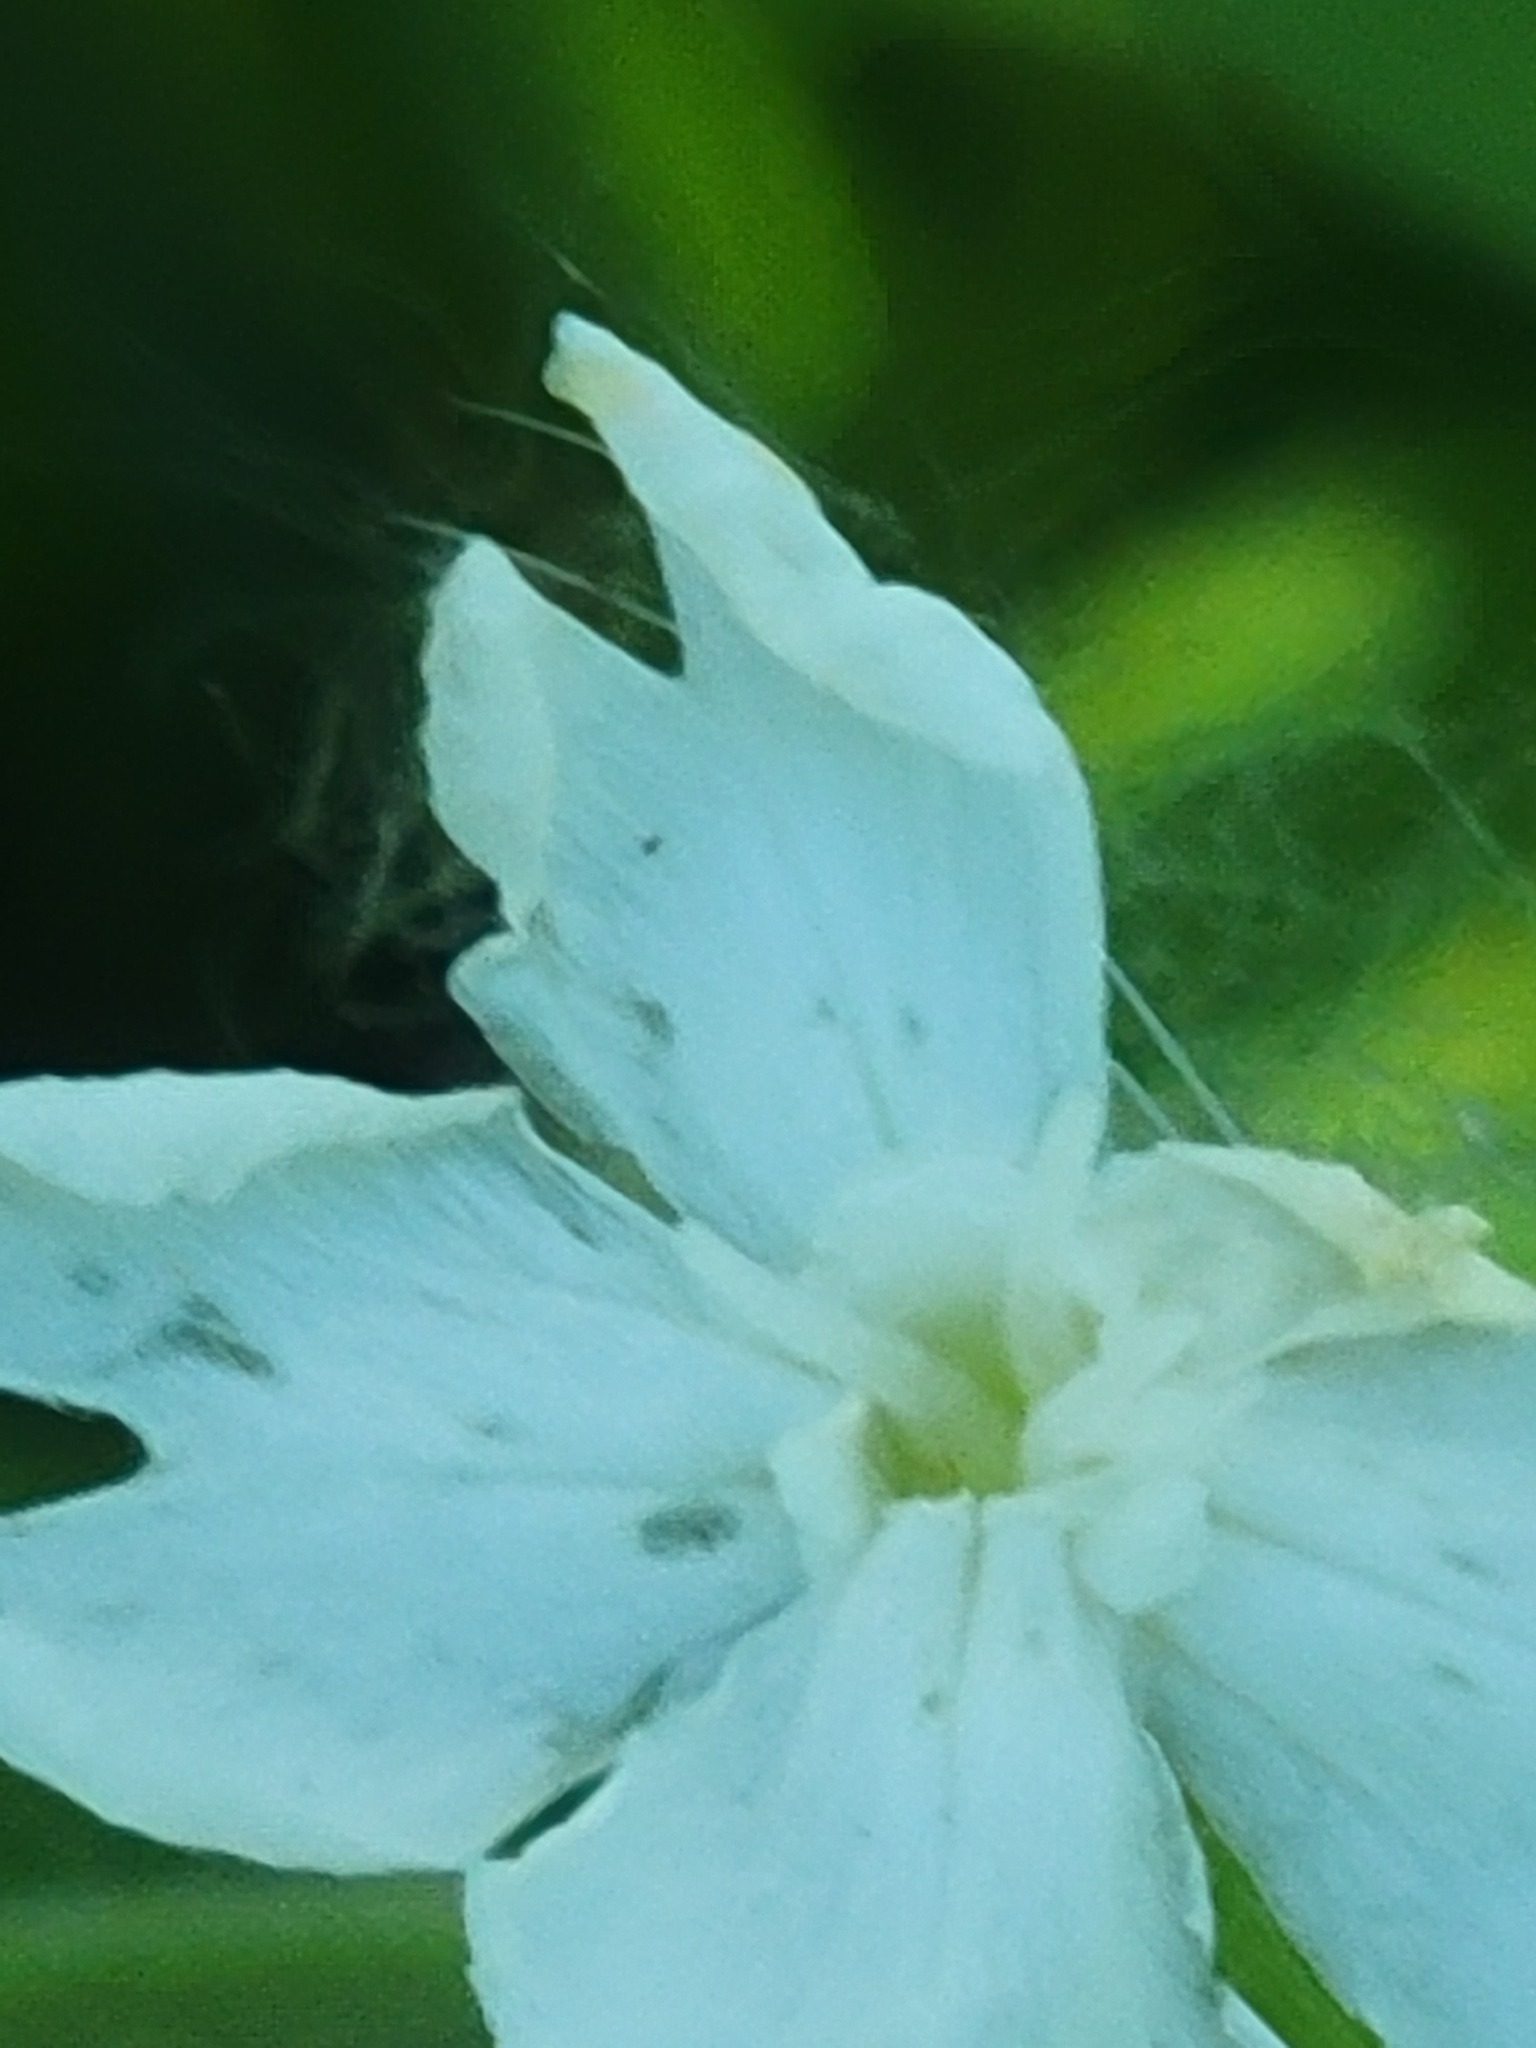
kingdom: Plantae
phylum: Tracheophyta
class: Magnoliopsida
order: Caryophyllales
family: Caryophyllaceae
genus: Silene
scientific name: Silene latifolia
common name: White campion
